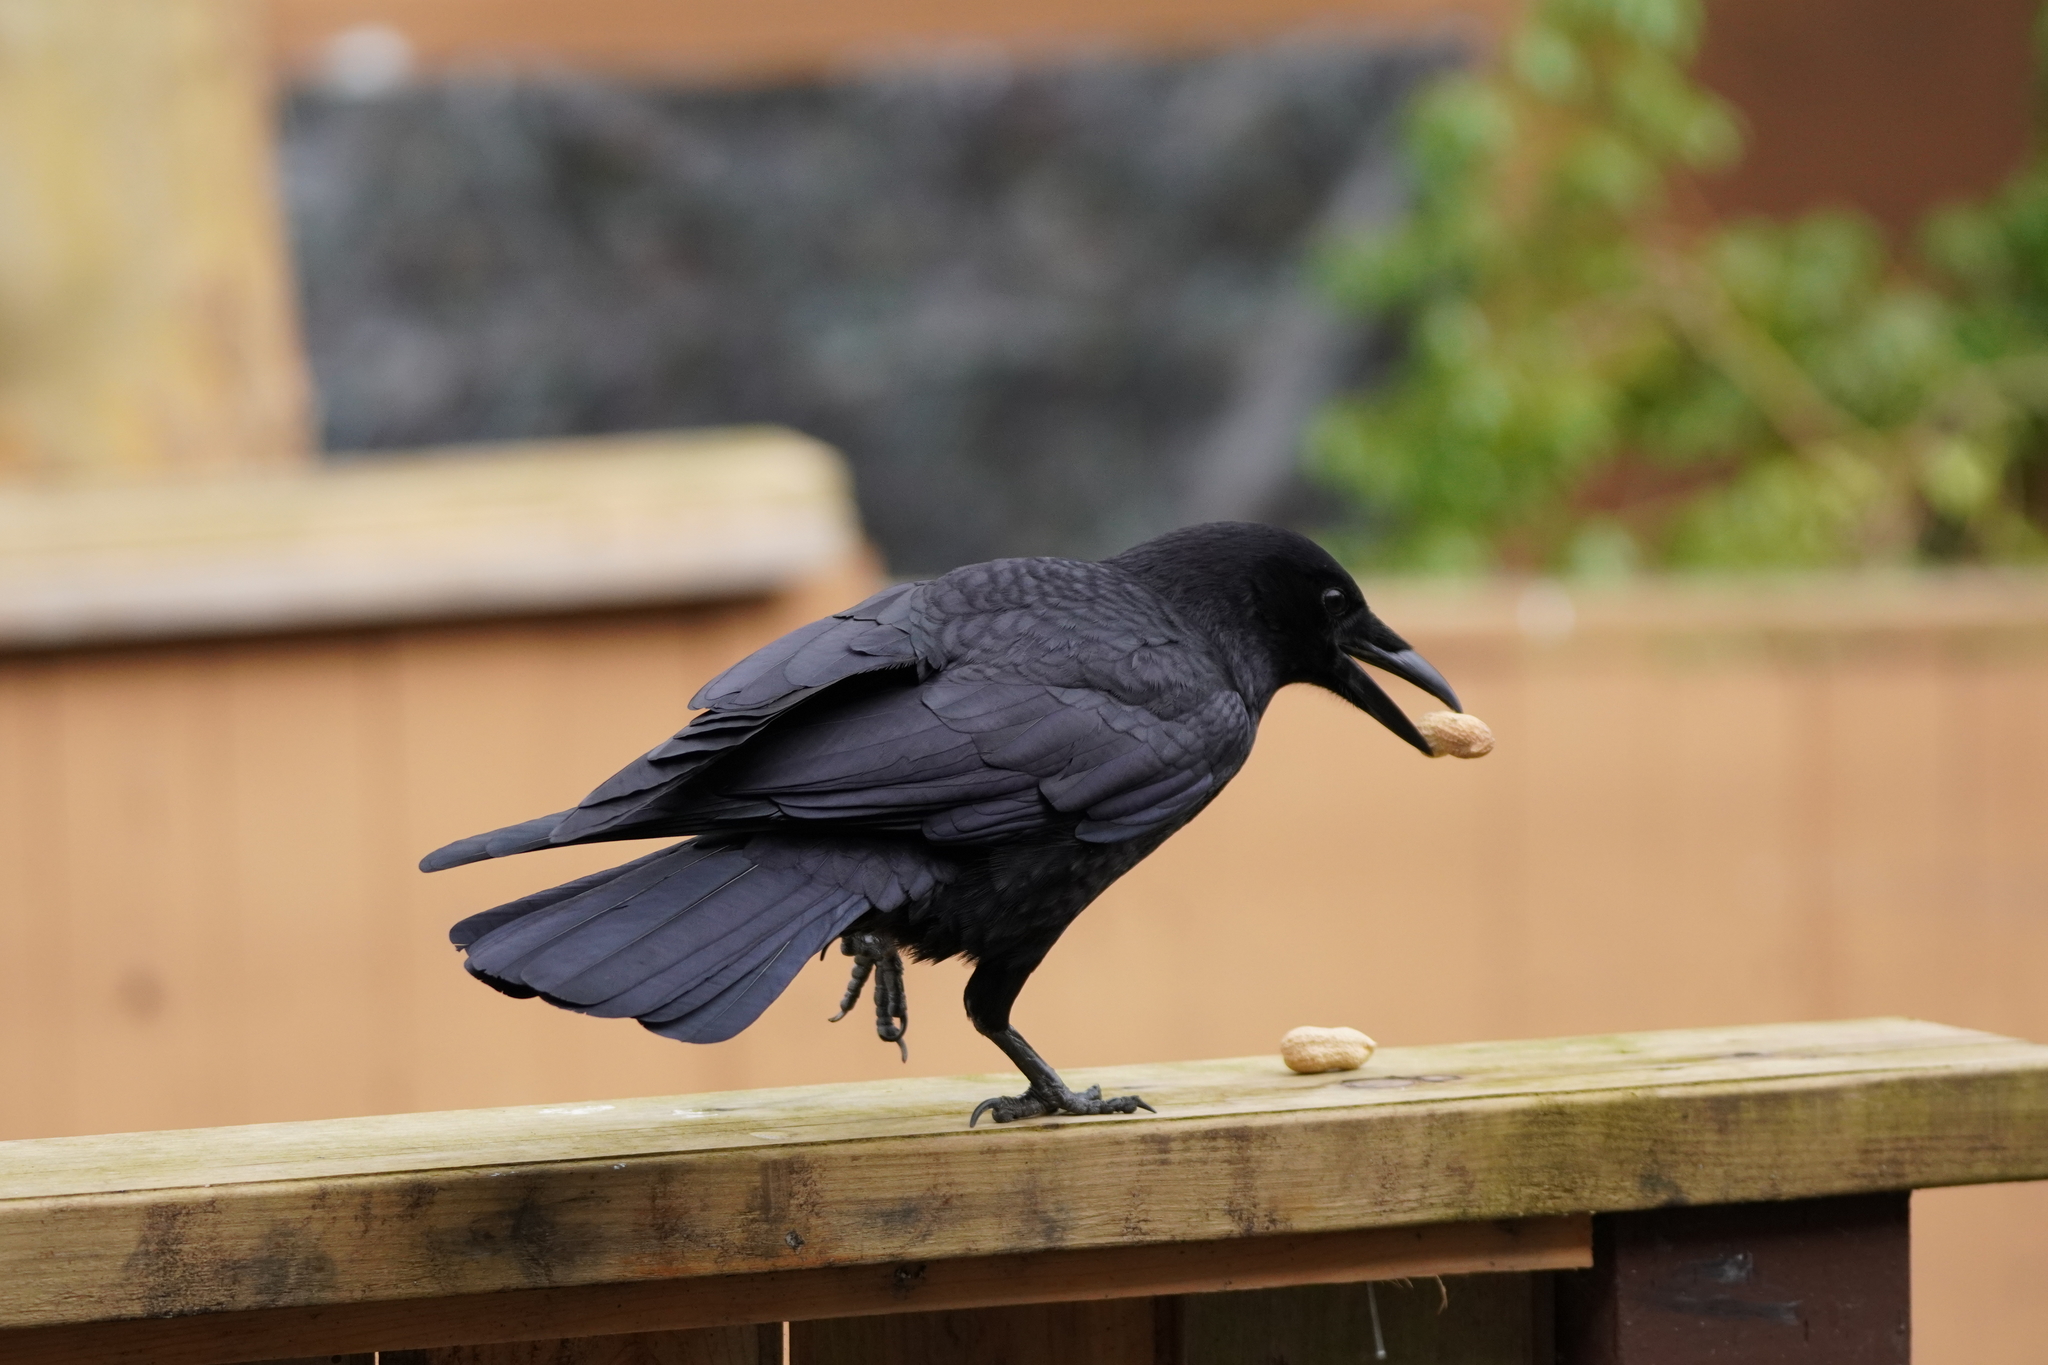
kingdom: Animalia
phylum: Chordata
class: Aves
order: Passeriformes
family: Corvidae
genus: Corvus
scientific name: Corvus brachyrhynchos
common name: American crow
